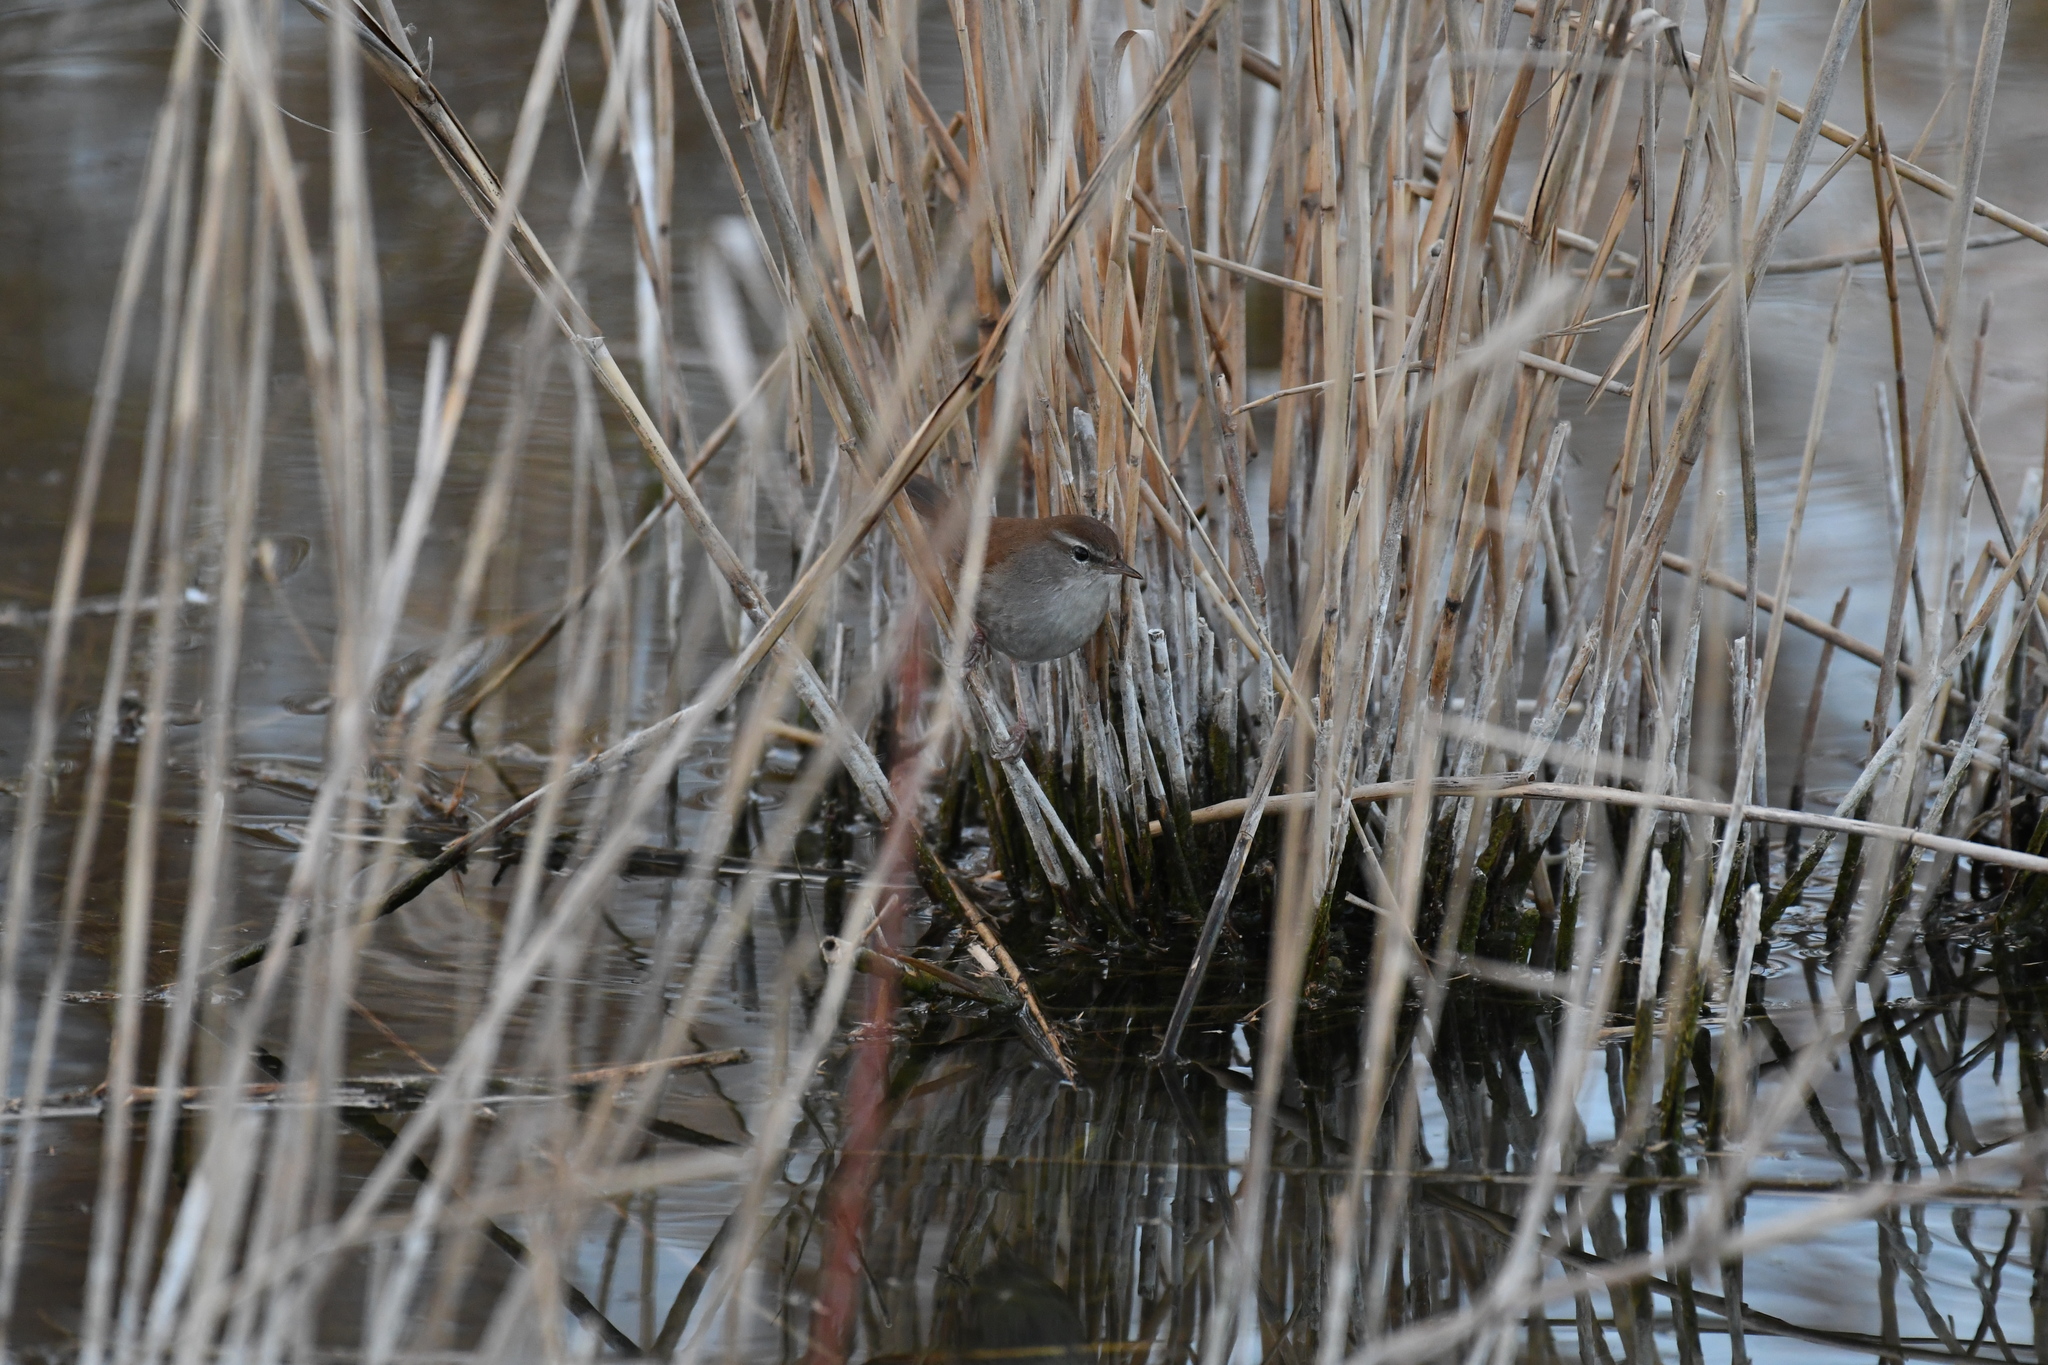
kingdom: Animalia
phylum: Chordata
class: Aves
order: Passeriformes
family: Cettiidae
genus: Cettia
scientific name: Cettia cetti
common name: Cetti's warbler
